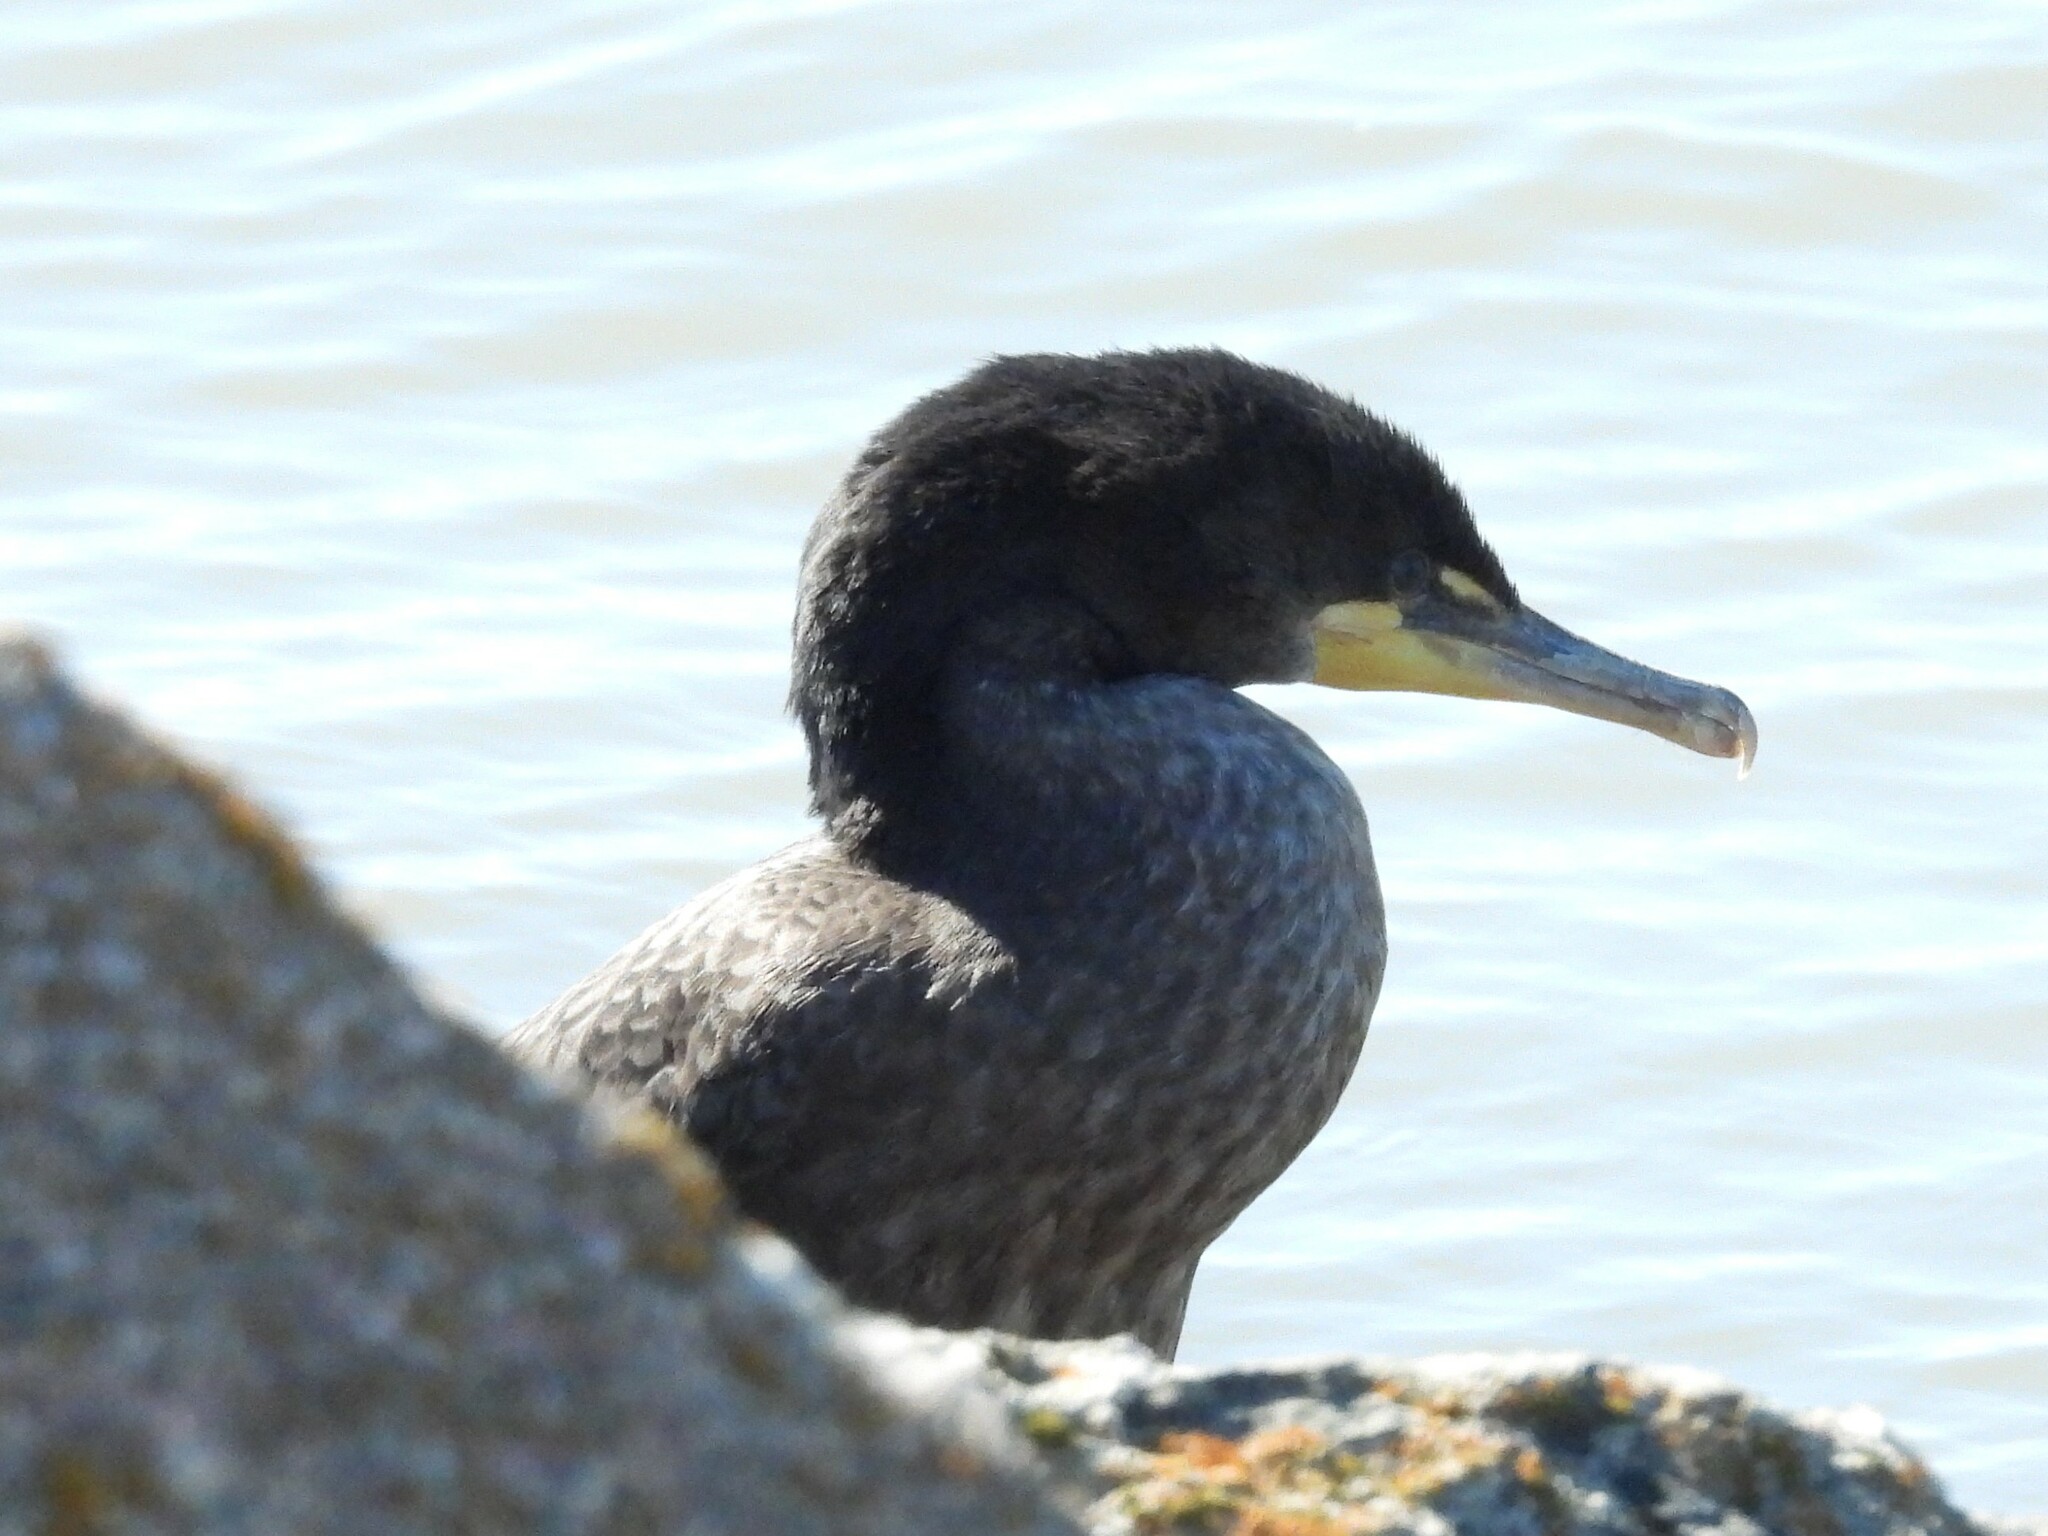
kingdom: Animalia
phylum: Chordata
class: Aves
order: Suliformes
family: Phalacrocoracidae
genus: Phalacrocorax
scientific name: Phalacrocorax auritus
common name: Double-crested cormorant
